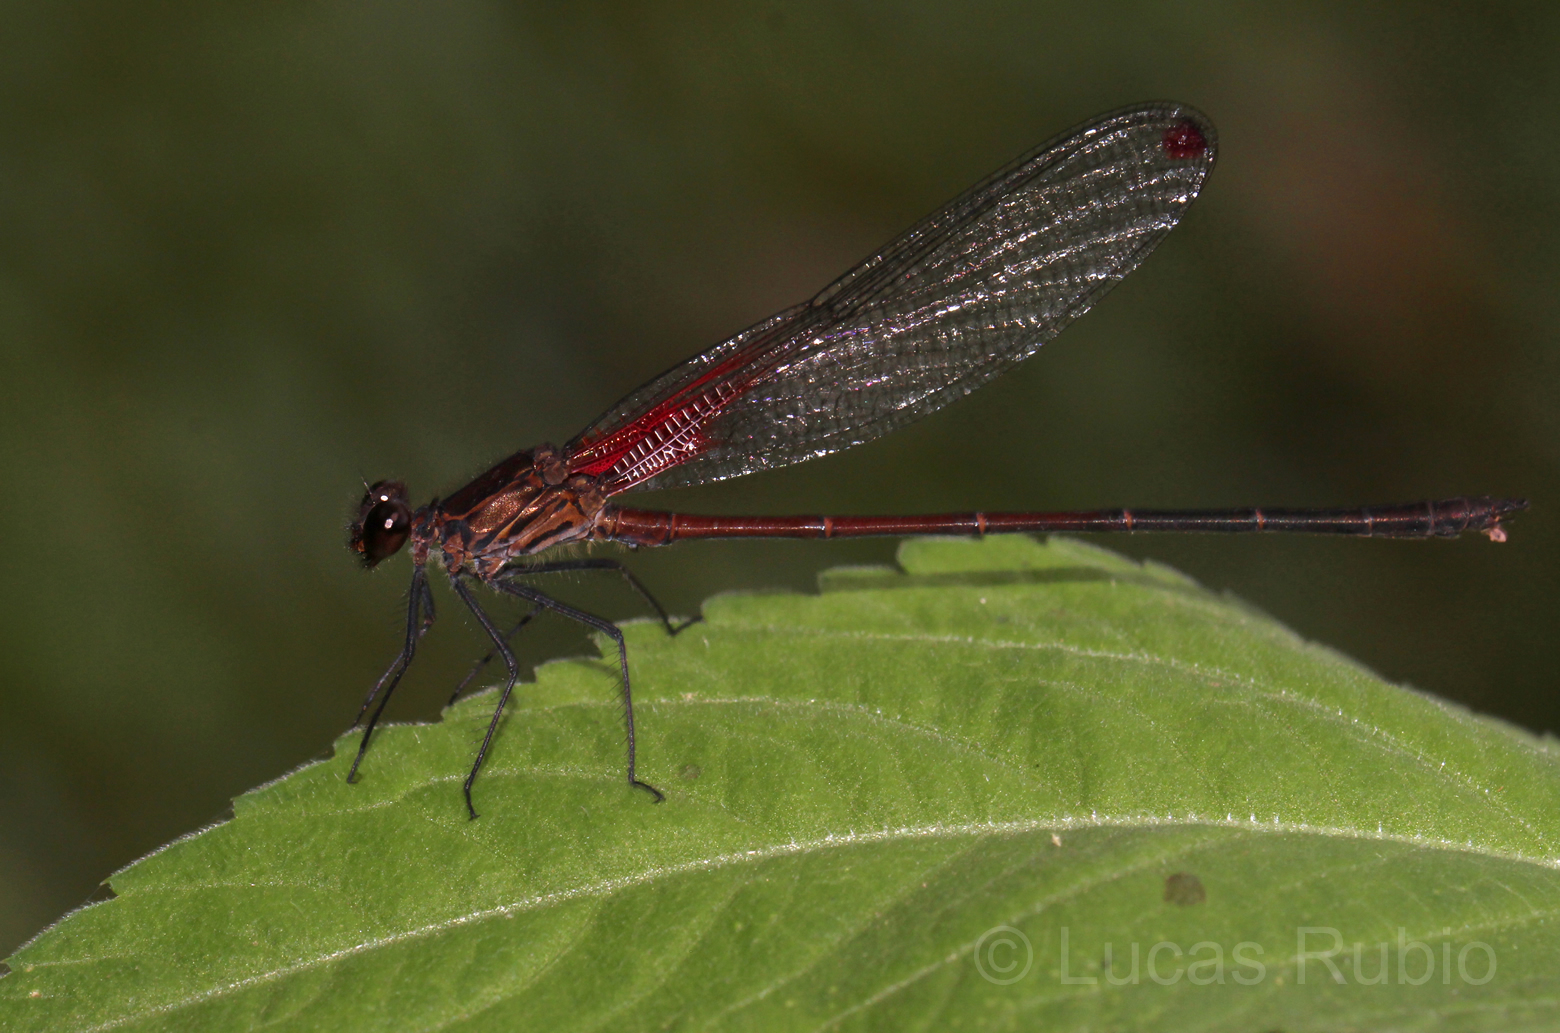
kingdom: Animalia
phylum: Arthropoda
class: Insecta
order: Odonata
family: Calopterygidae
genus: Hetaerina
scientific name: Hetaerina rosea
